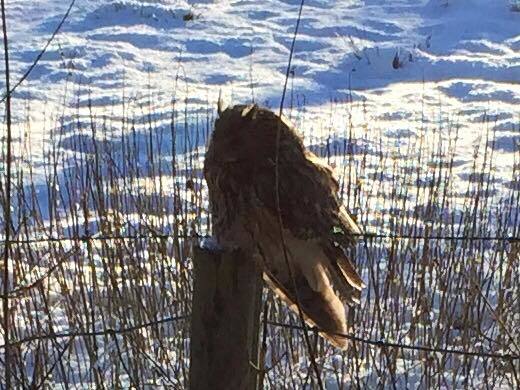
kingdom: Animalia
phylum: Chordata
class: Aves
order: Strigiformes
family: Strigidae
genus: Asio
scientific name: Asio otus
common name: Long-eared owl
